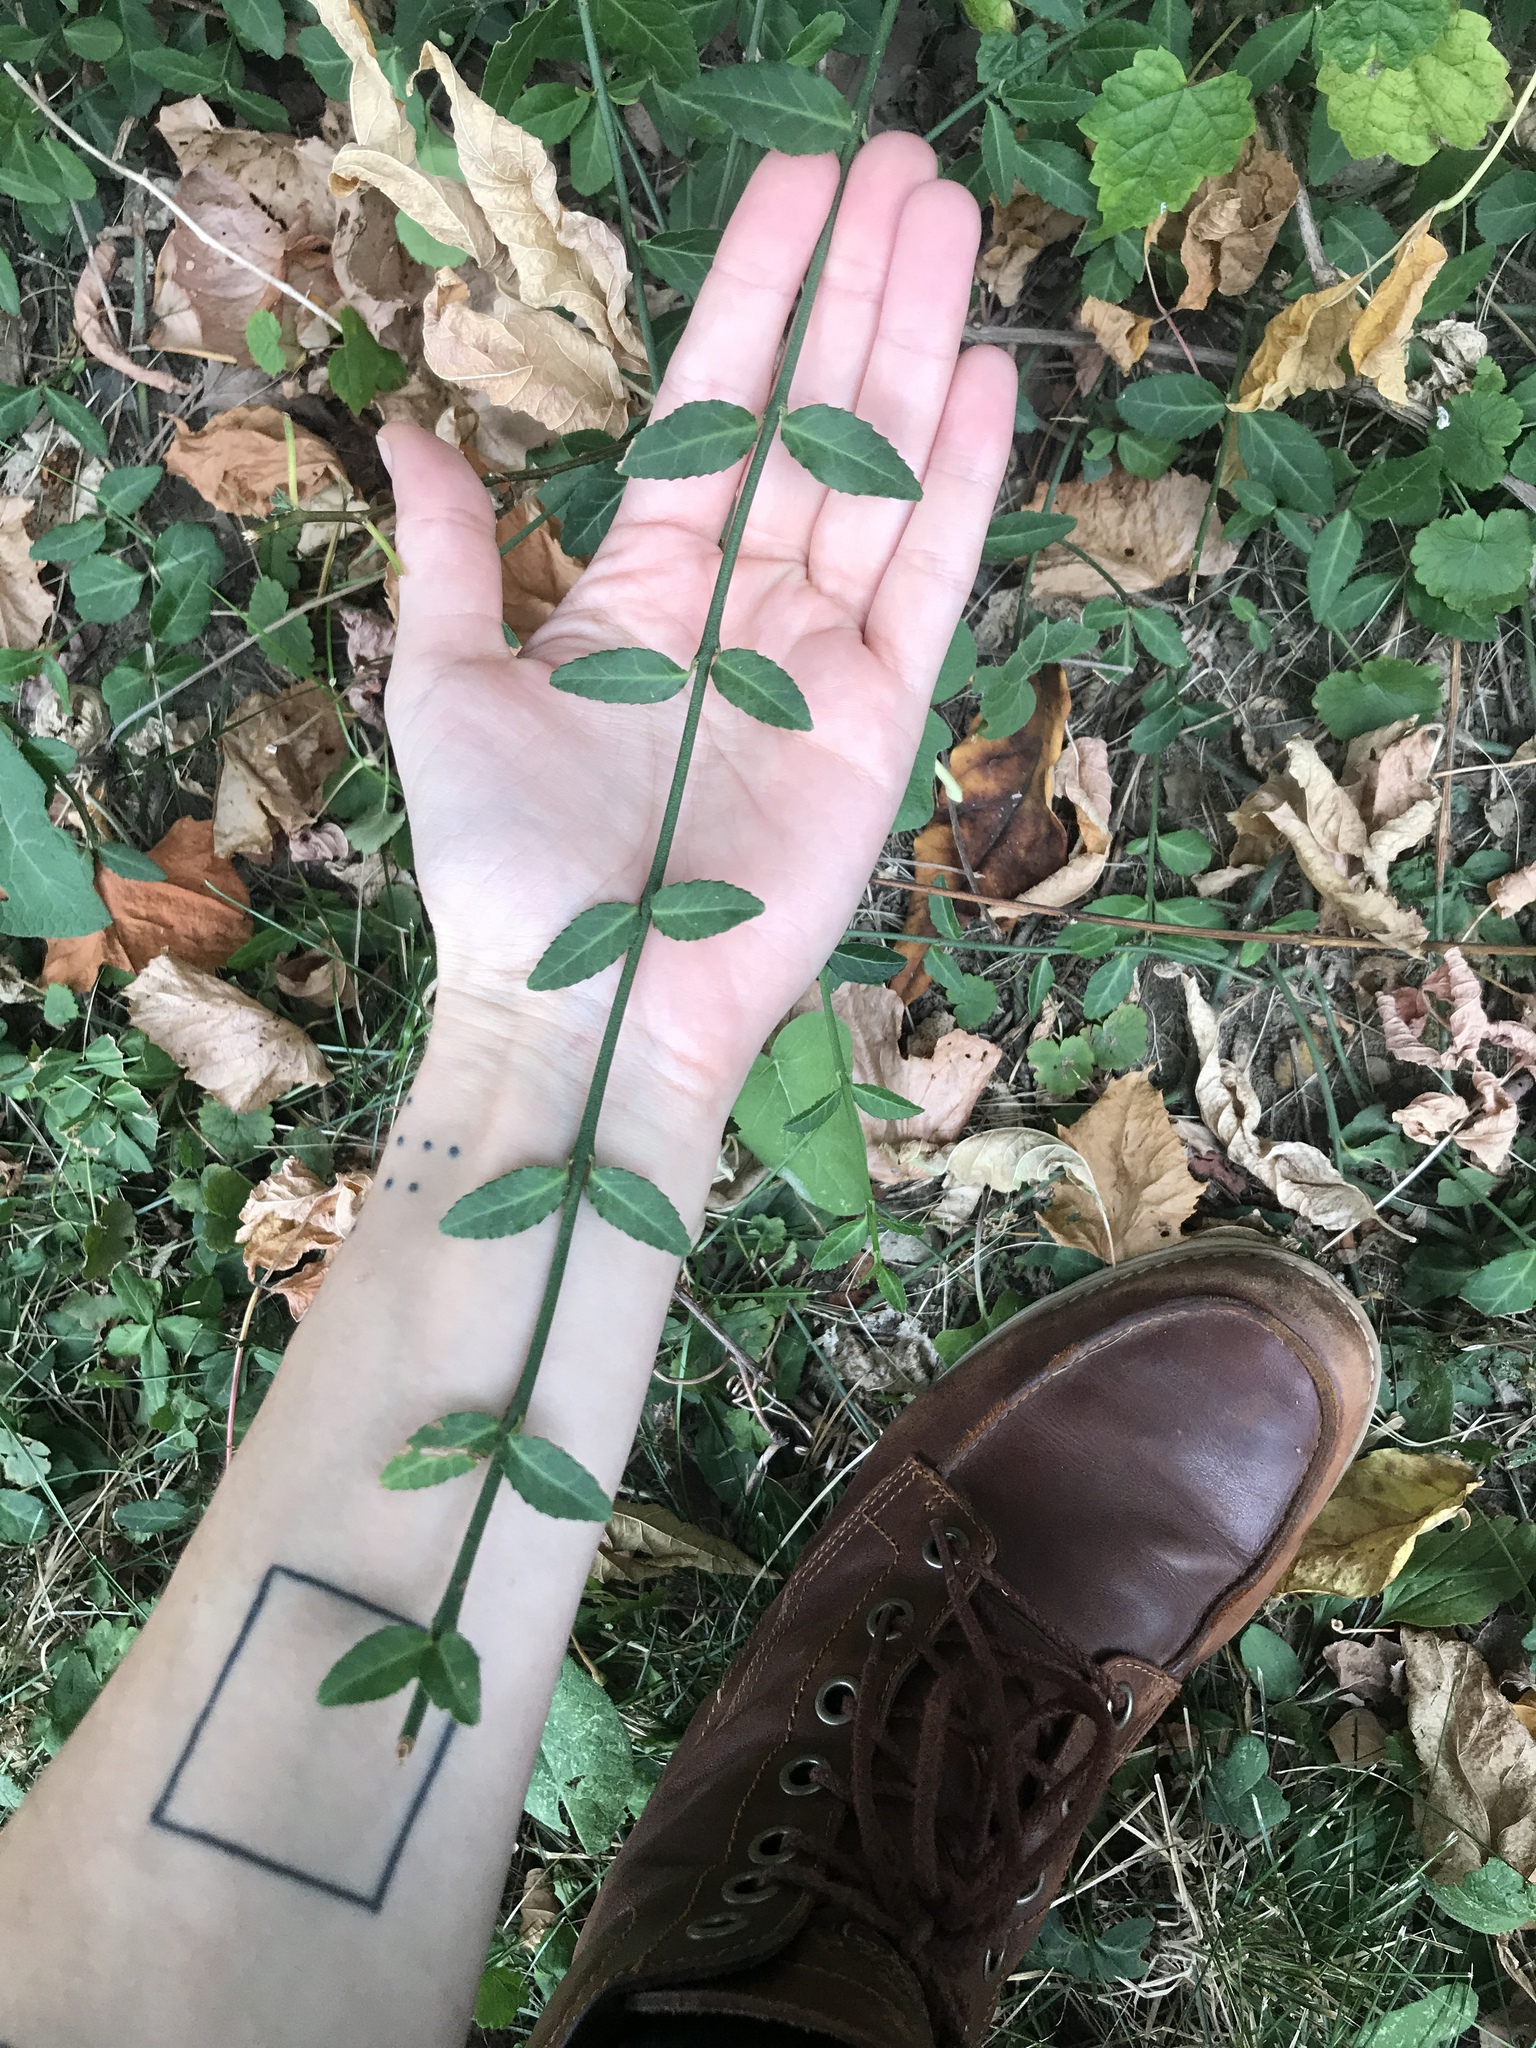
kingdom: Plantae
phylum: Tracheophyta
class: Magnoliopsida
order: Celastrales
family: Celastraceae
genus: Euonymus
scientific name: Euonymus fortunei
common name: Climbing euonymus
